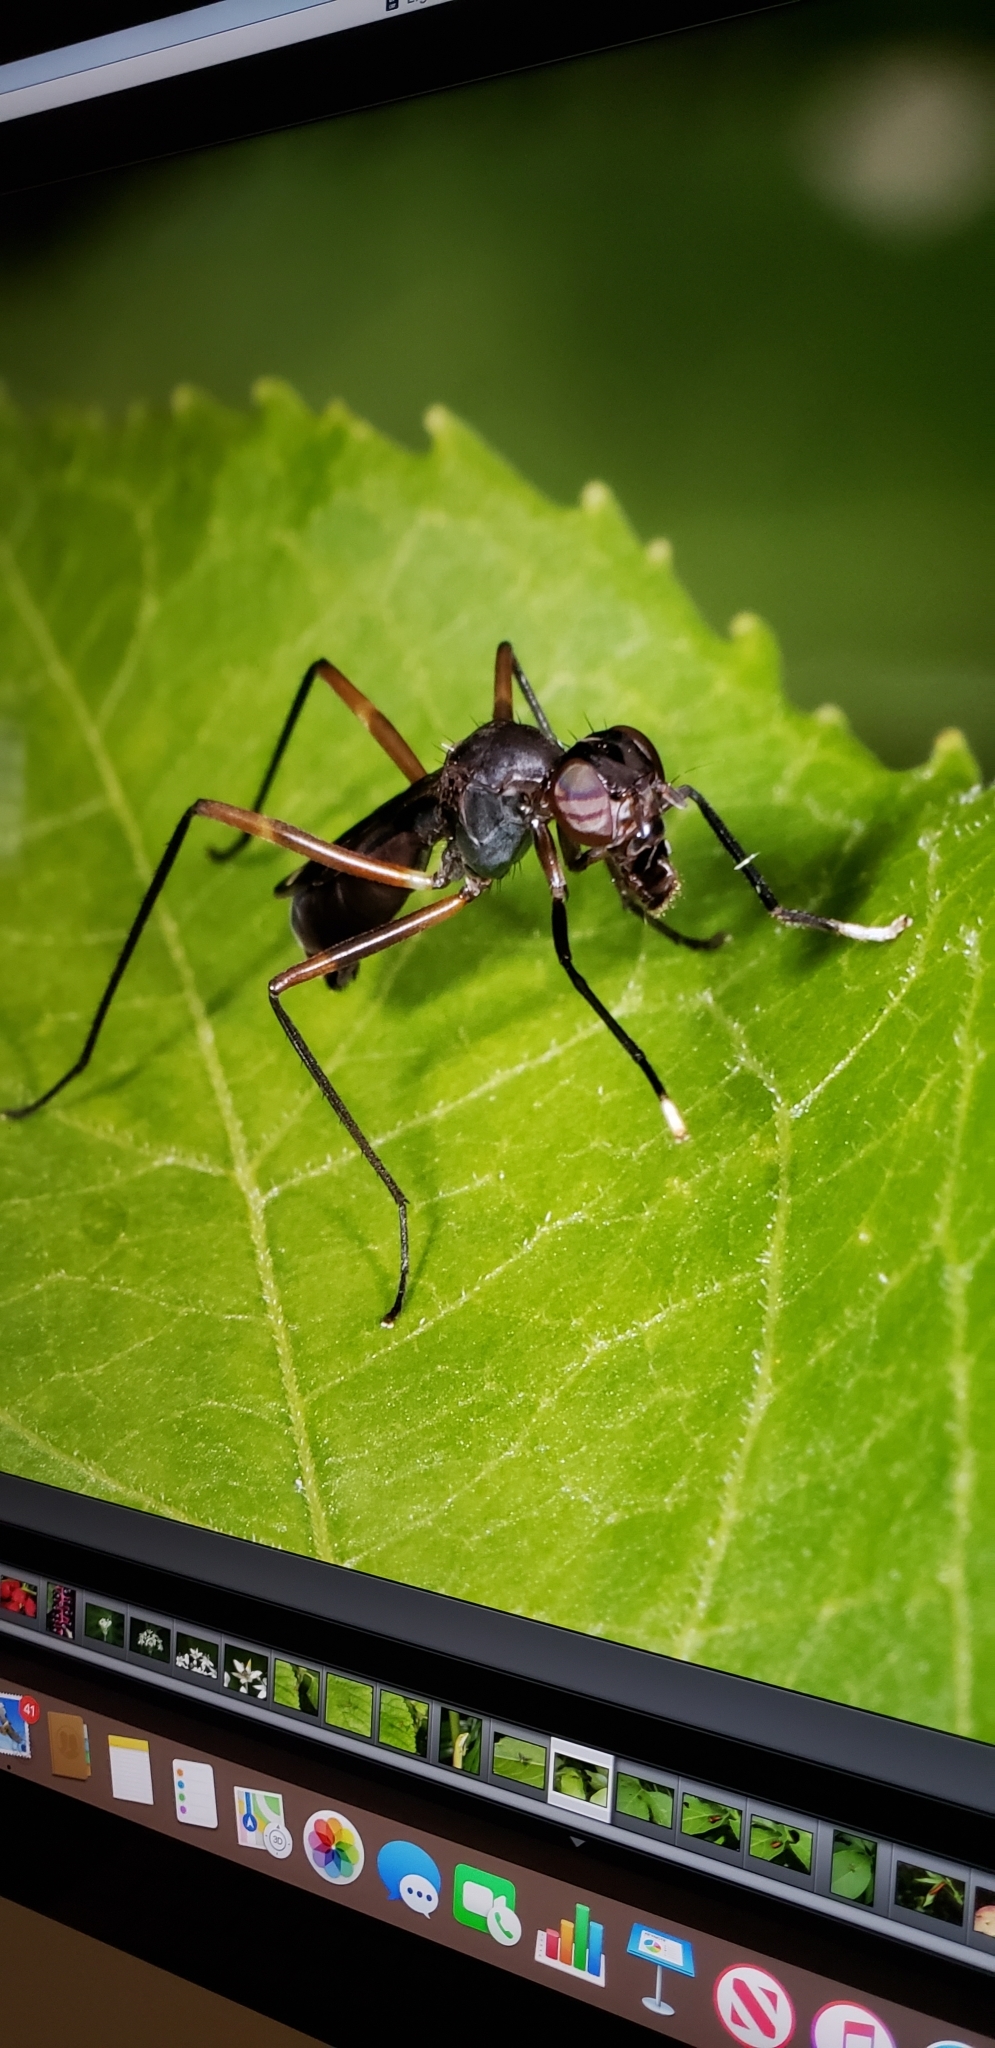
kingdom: Animalia
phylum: Arthropoda
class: Insecta
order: Diptera
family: Micropezidae
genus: Taeniaptera
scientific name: Taeniaptera trivittata
